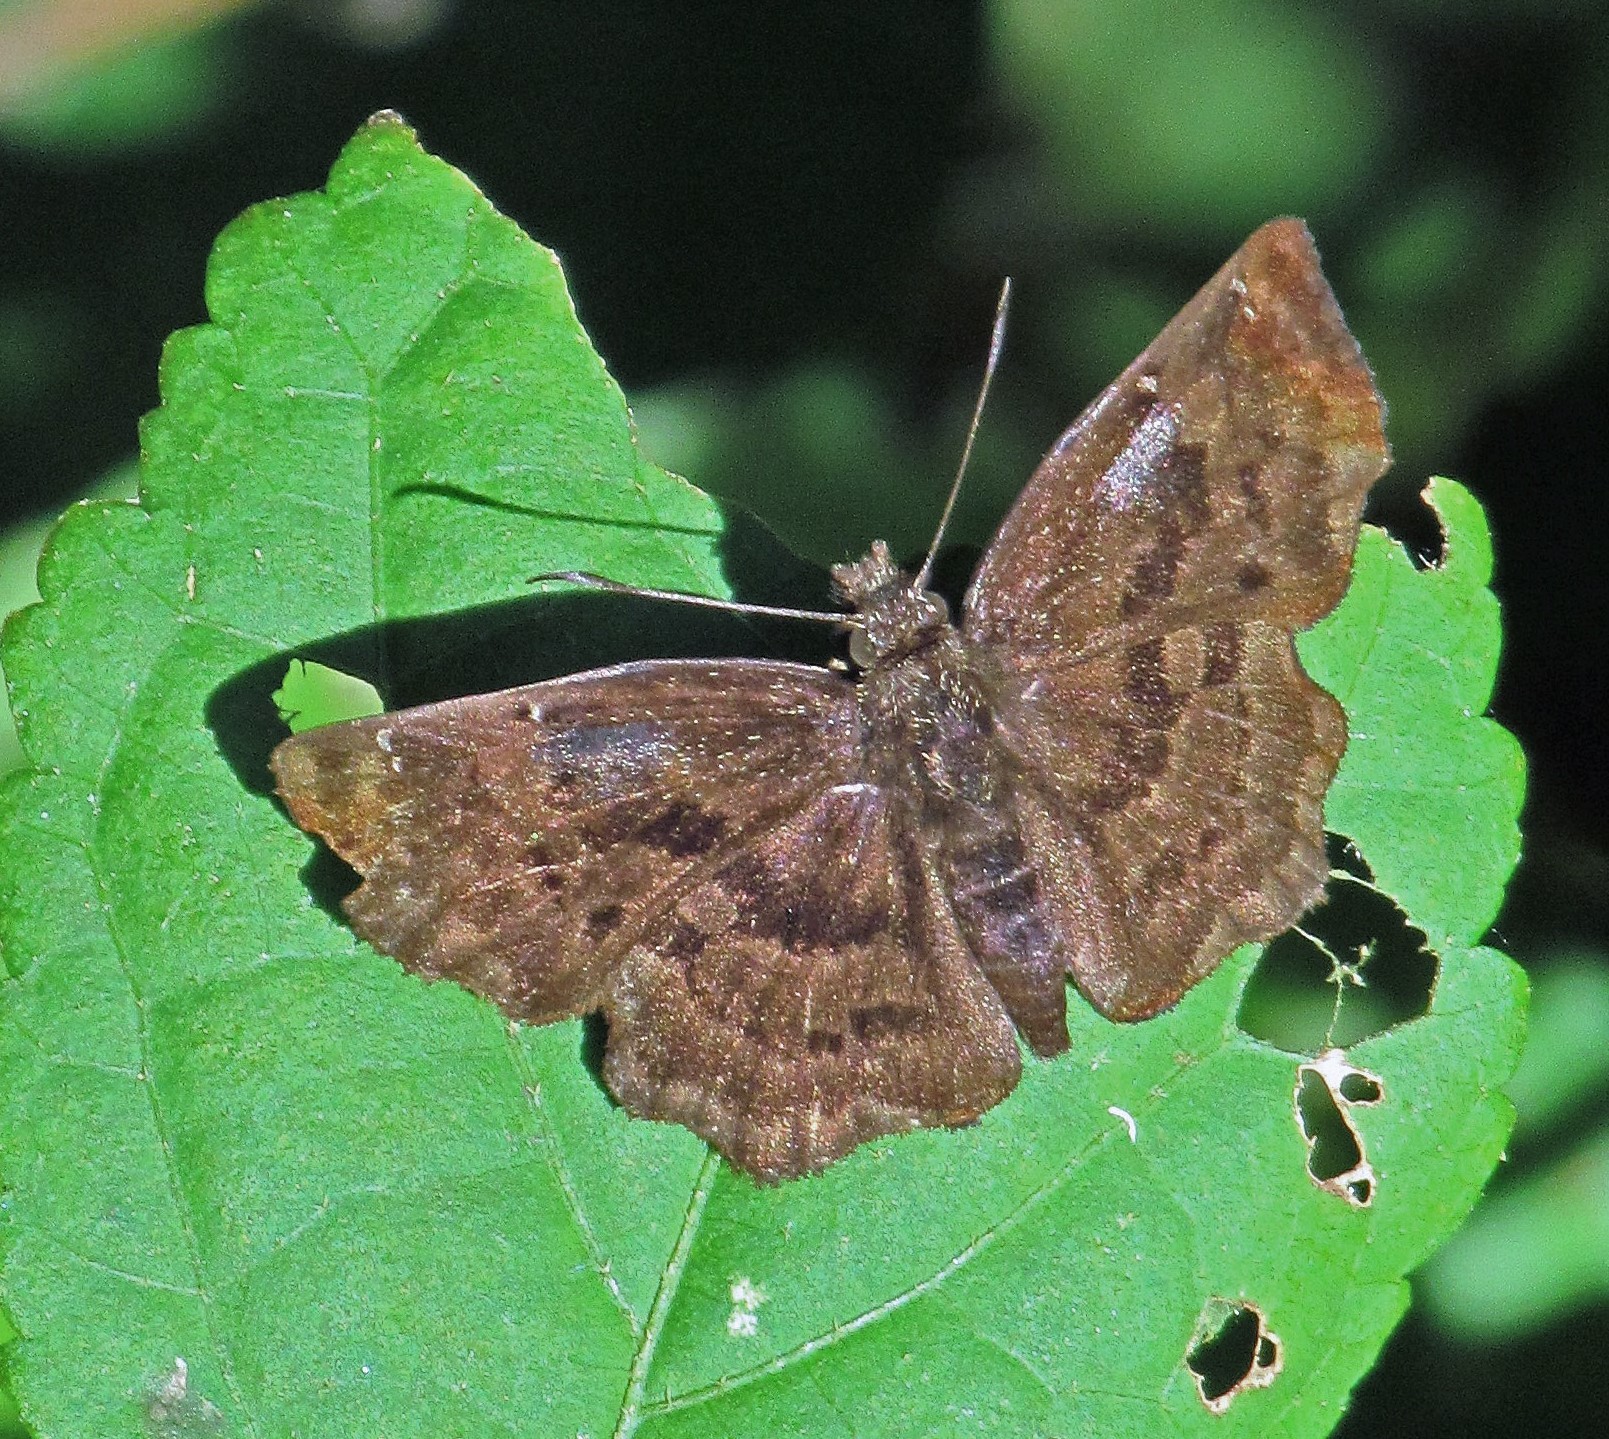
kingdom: Animalia
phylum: Arthropoda
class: Insecta
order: Lepidoptera
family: Hesperiidae
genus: Antigonus
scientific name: Antigonus liborius
